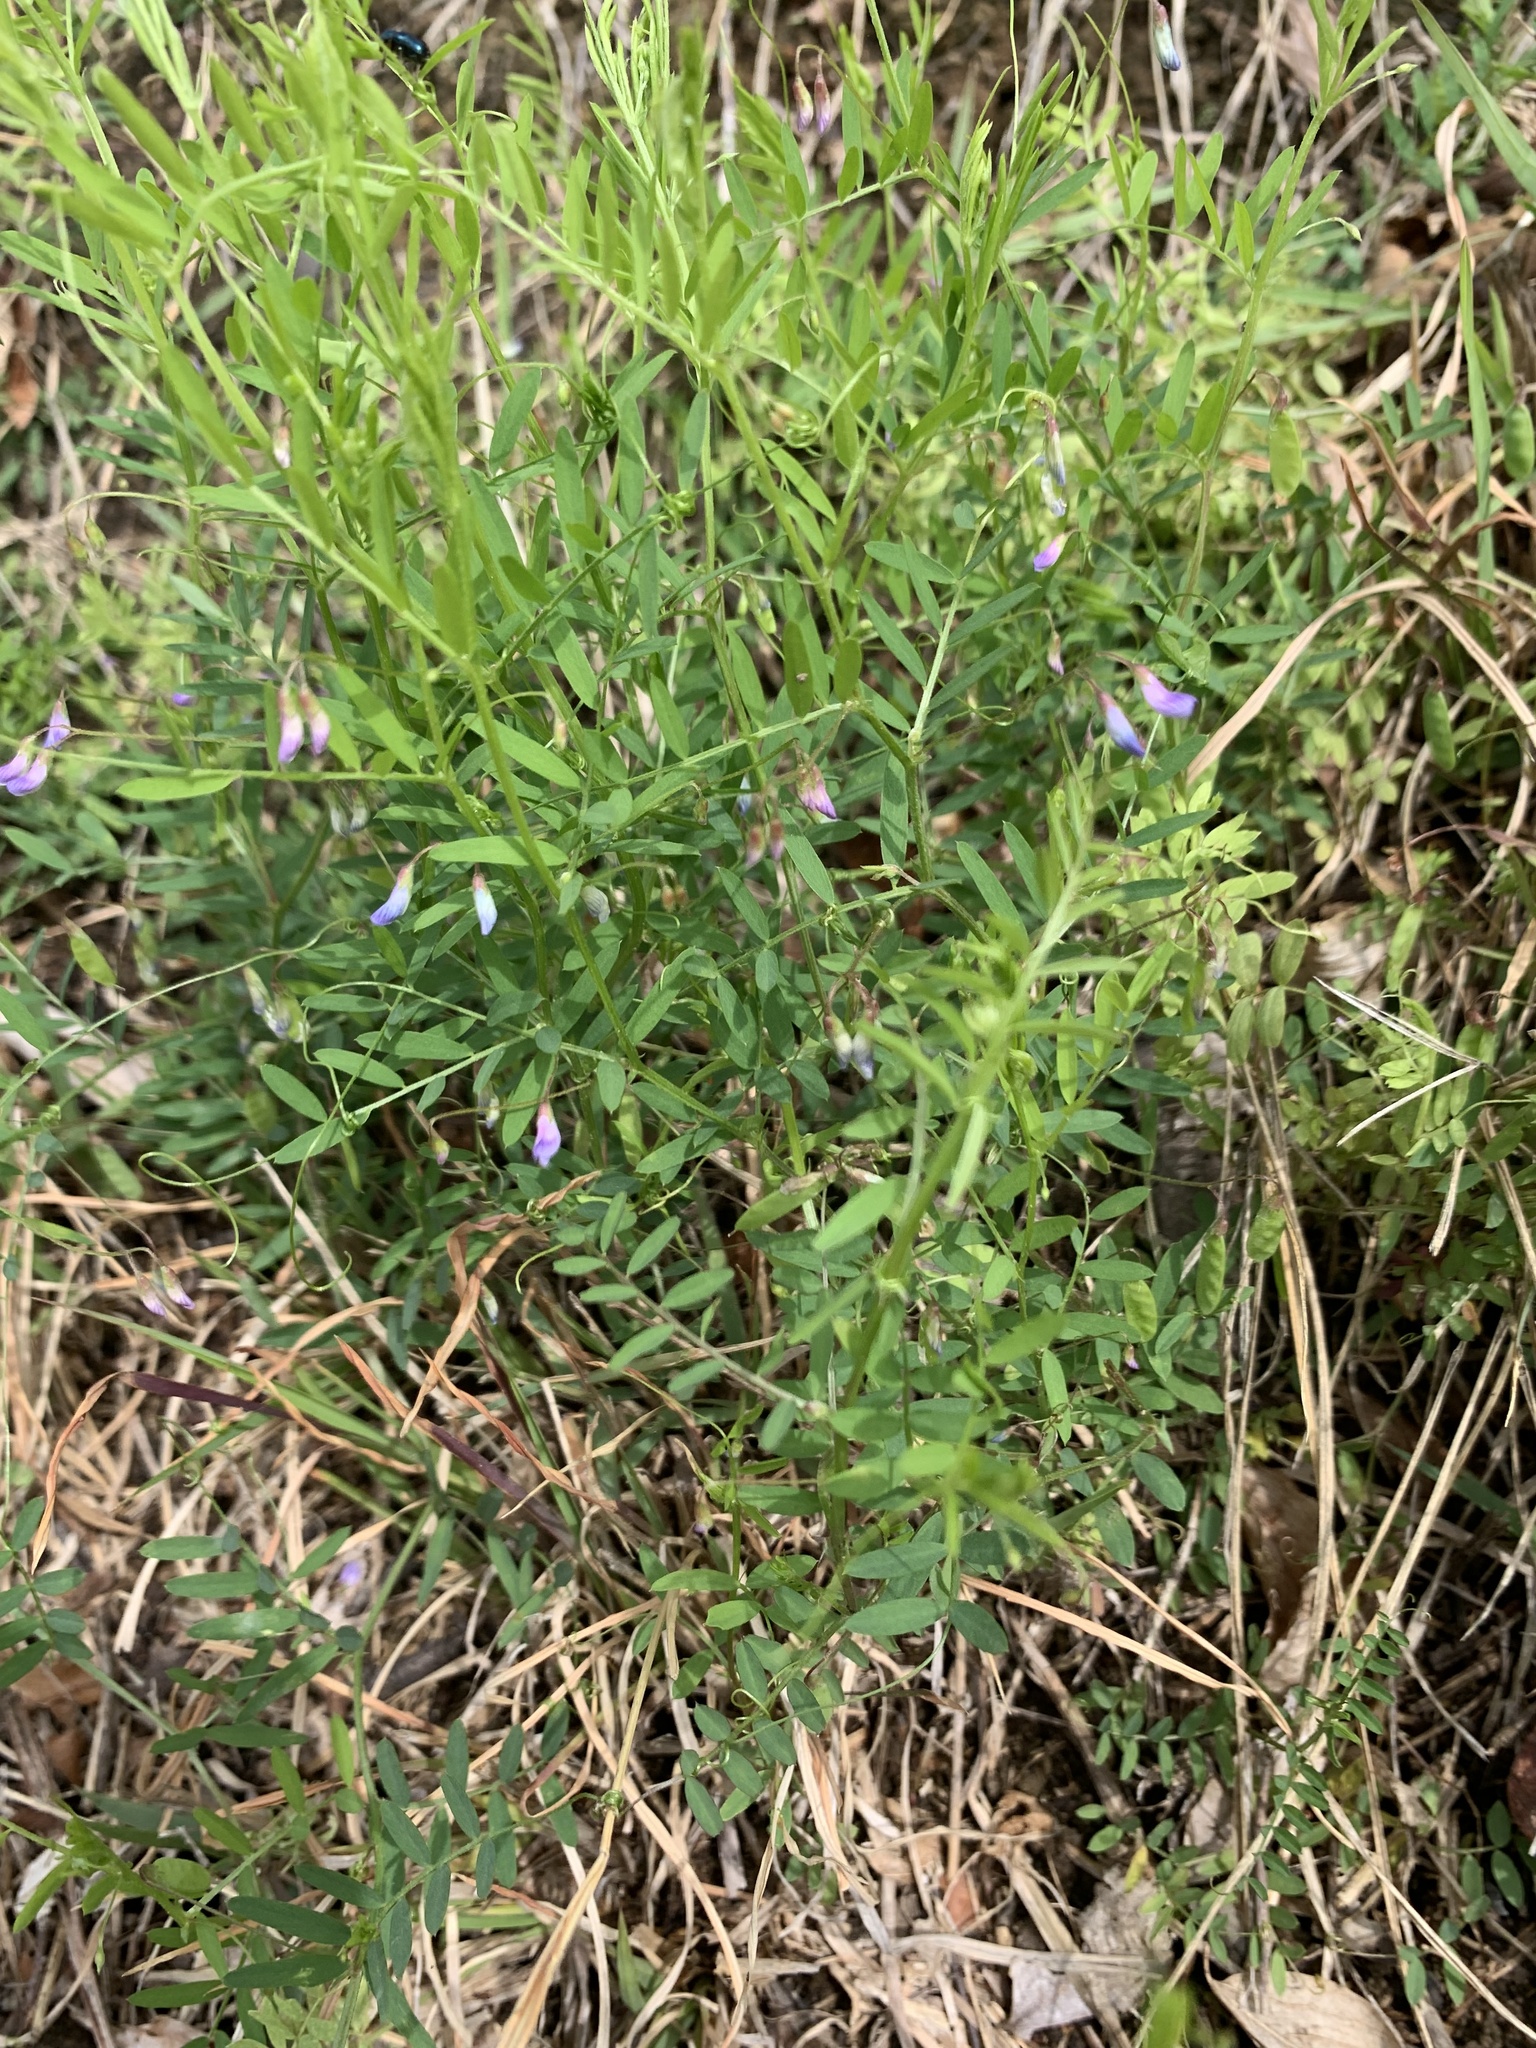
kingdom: Plantae
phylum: Tracheophyta
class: Magnoliopsida
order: Fabales
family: Fabaceae
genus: Vicia
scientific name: Vicia tetrasperma
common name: Smooth tare
